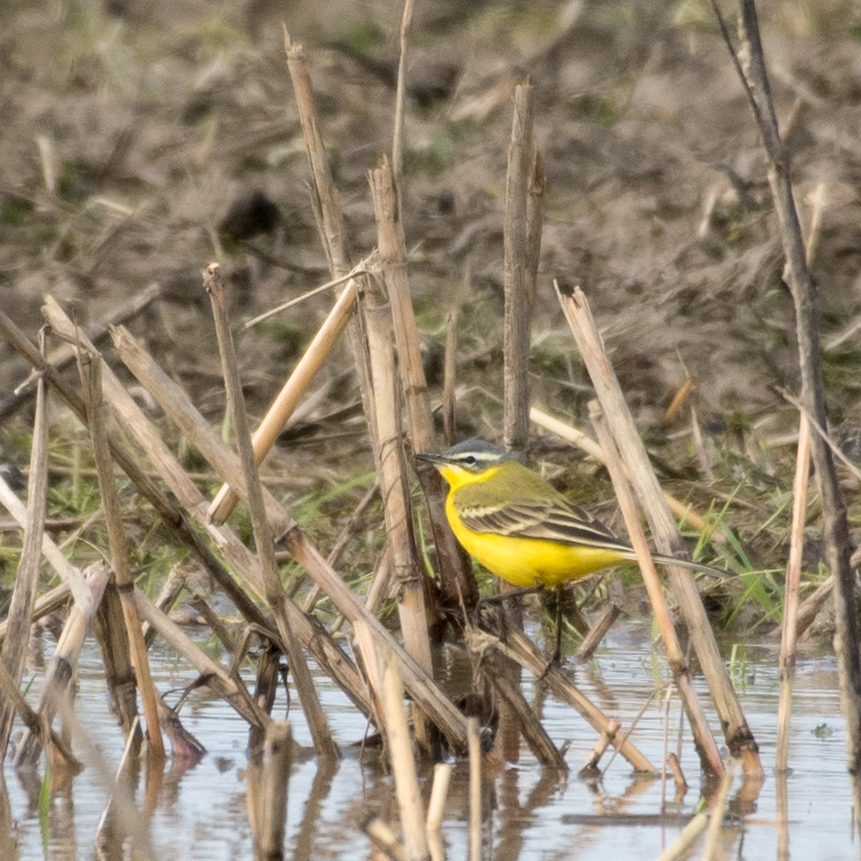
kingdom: Animalia
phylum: Chordata
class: Aves
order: Passeriformes
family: Motacillidae
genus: Motacilla
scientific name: Motacilla flava
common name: Western yellow wagtail
